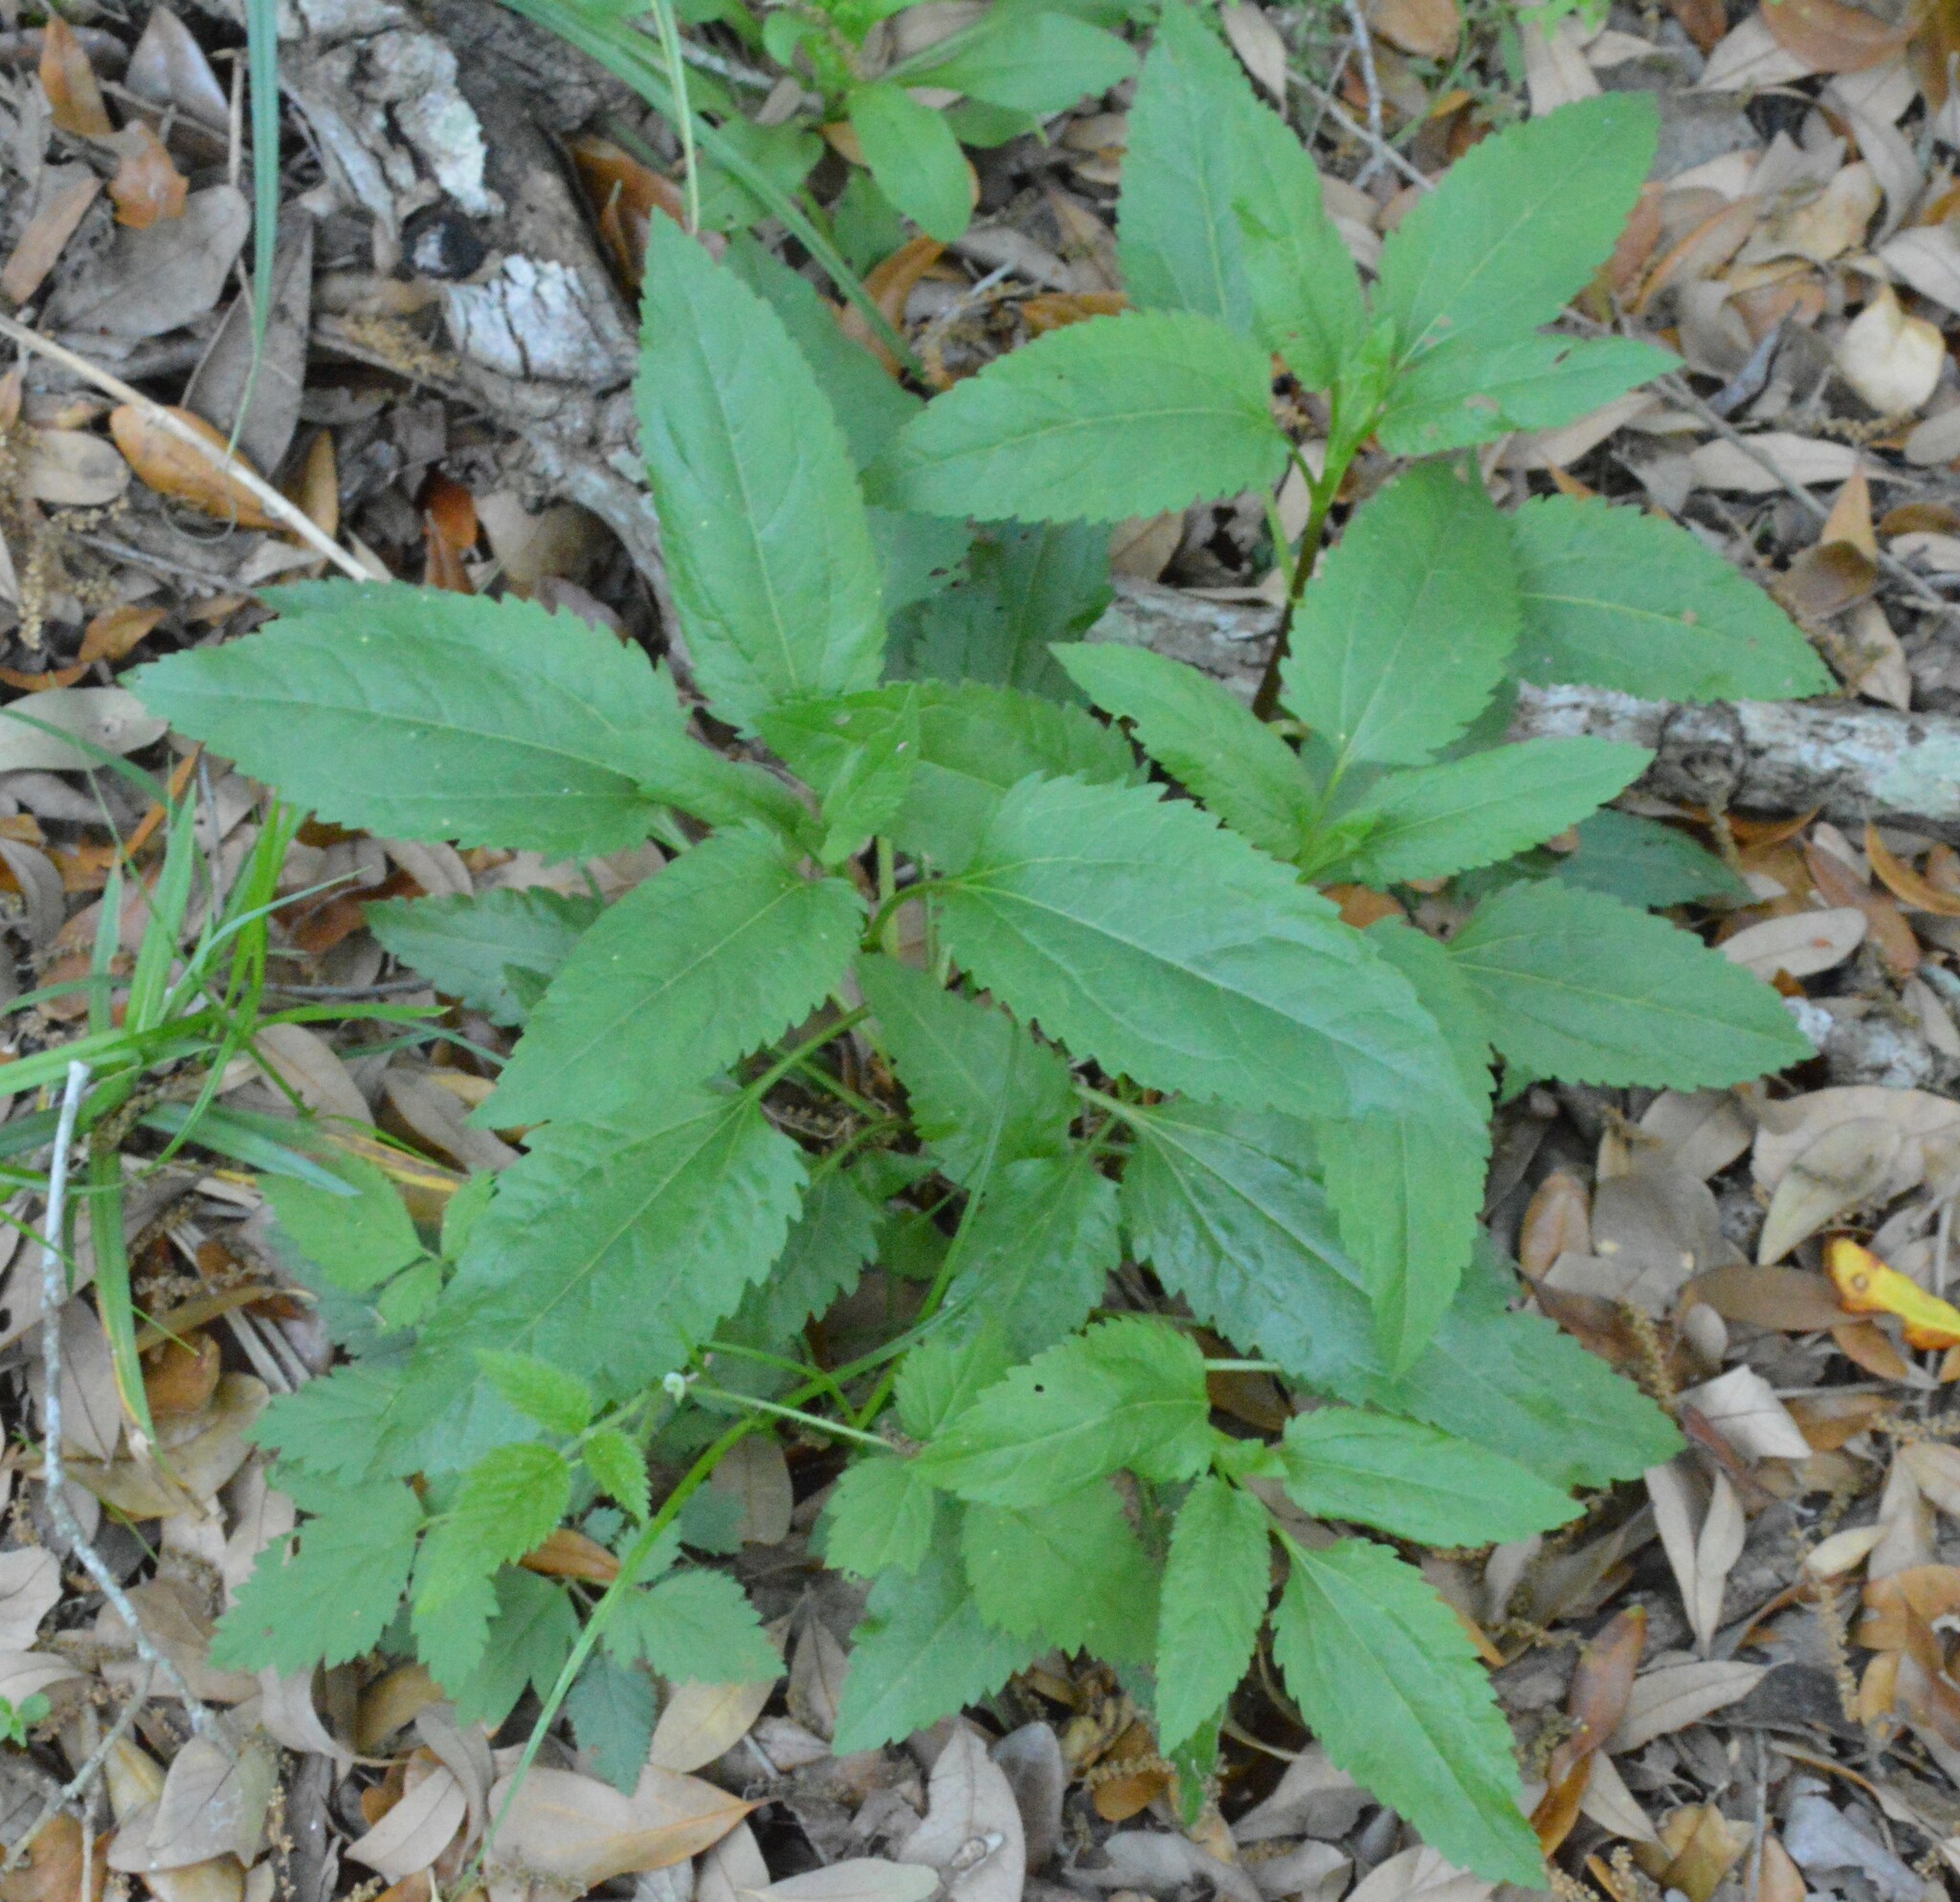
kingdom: Plantae
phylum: Tracheophyta
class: Magnoliopsida
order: Asterales
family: Asteraceae
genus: Eupatorium
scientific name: Eupatorium serotinum
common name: Late boneset
